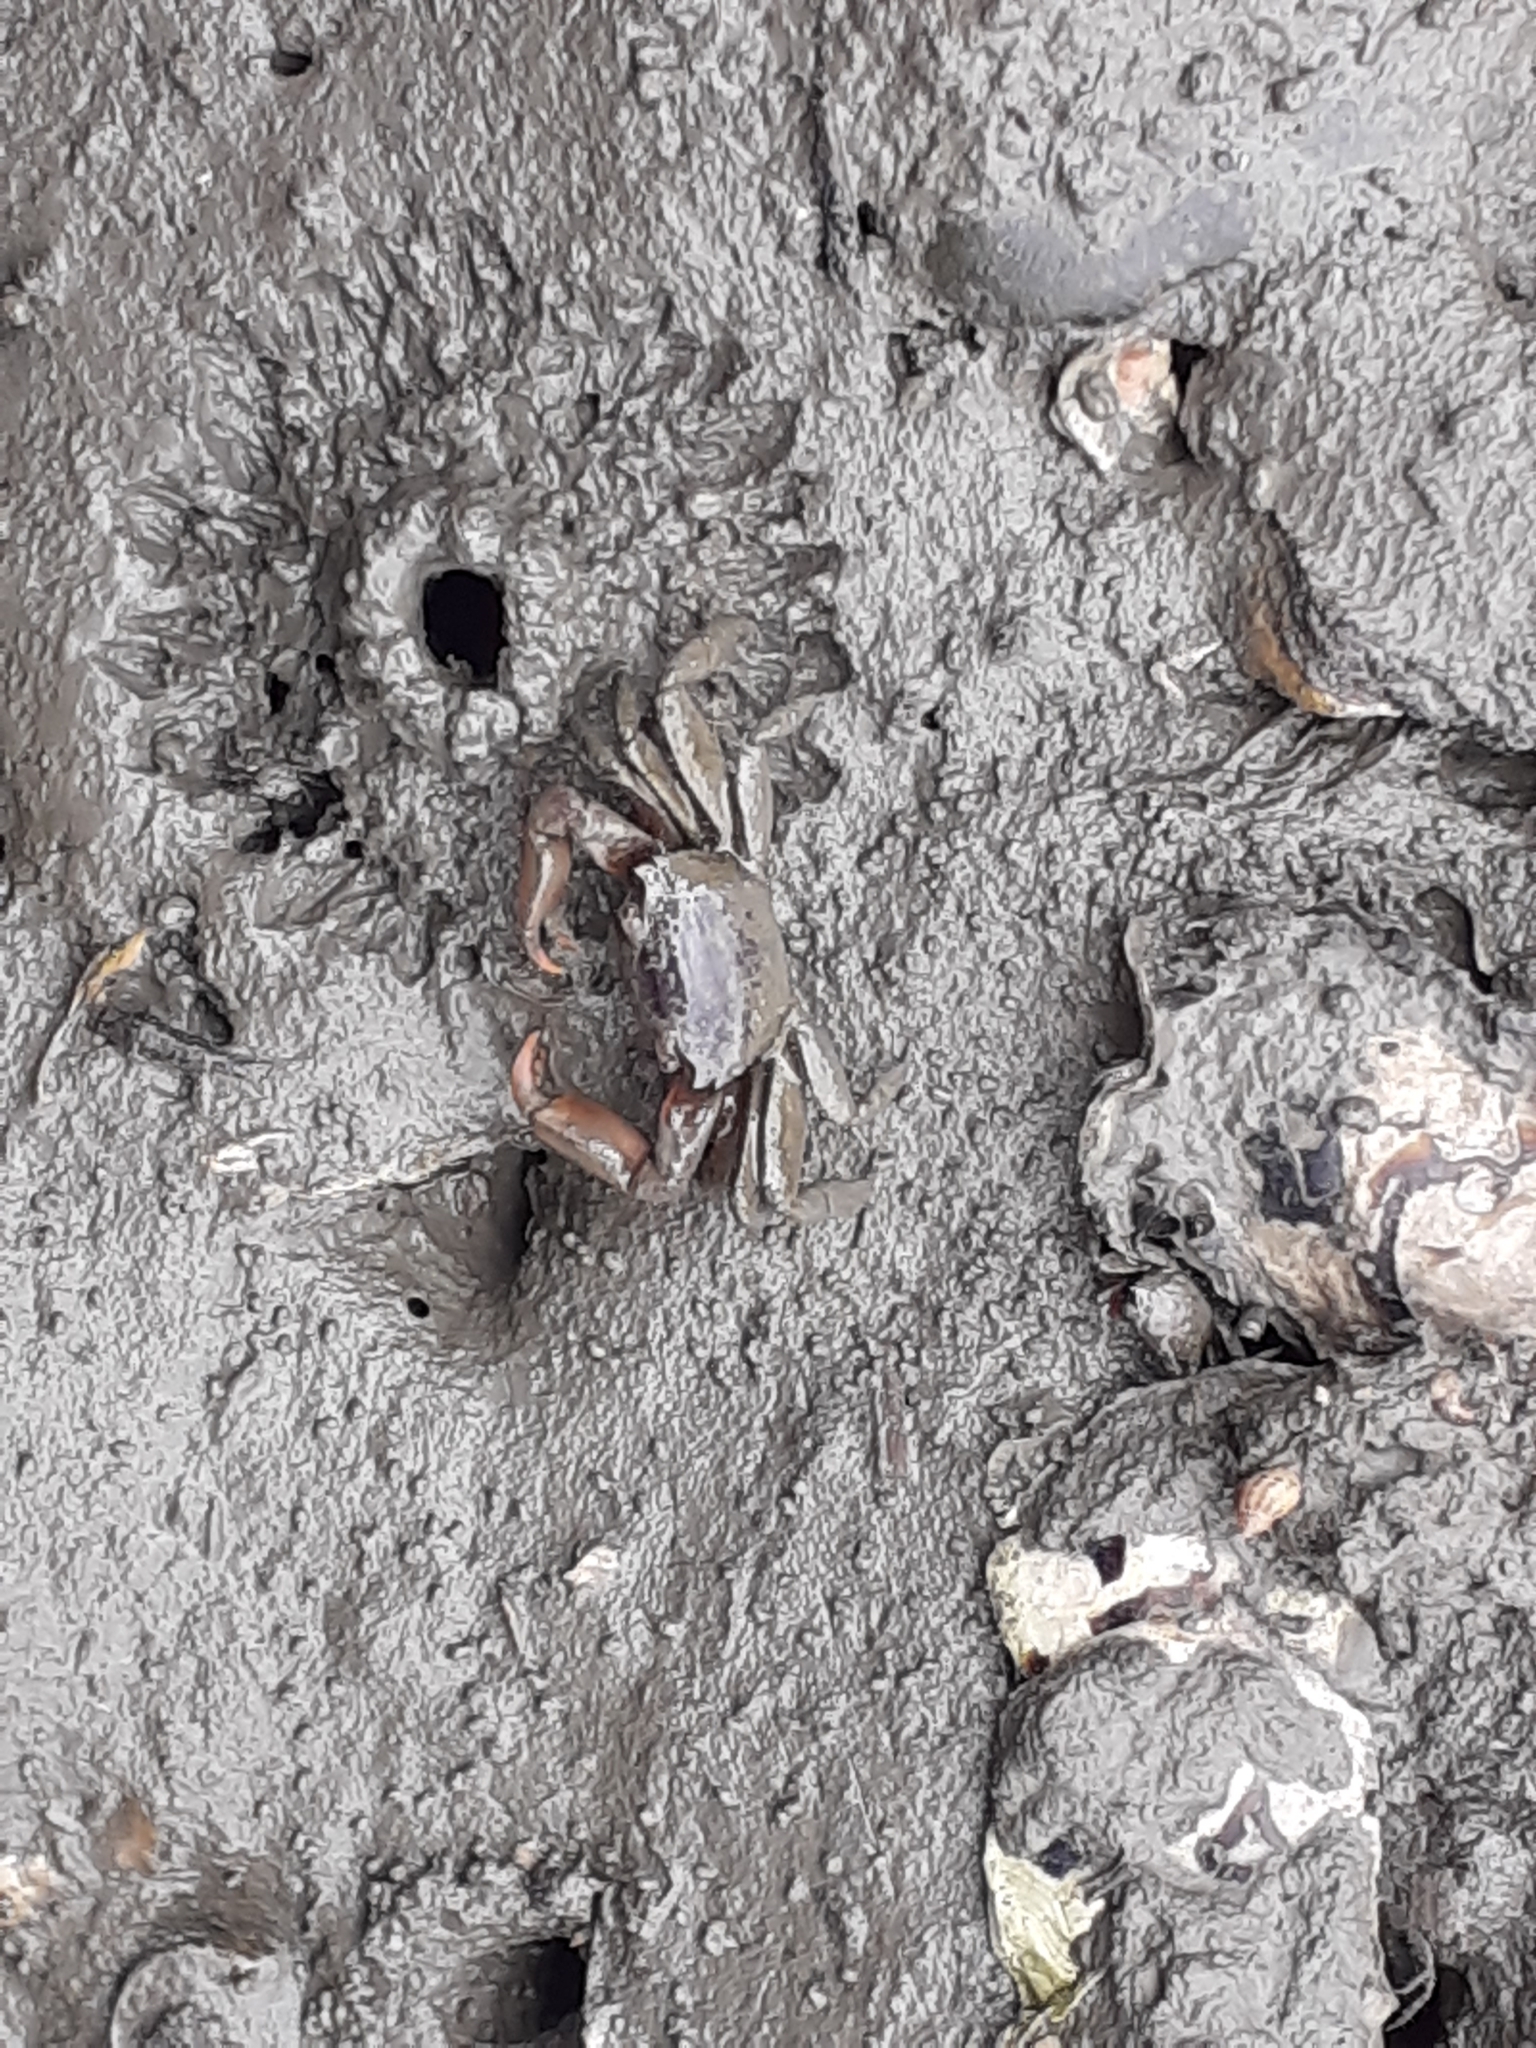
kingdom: Animalia
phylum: Arthropoda
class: Malacostraca
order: Decapoda
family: Varunidae
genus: Metaplax
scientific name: Metaplax elegans
